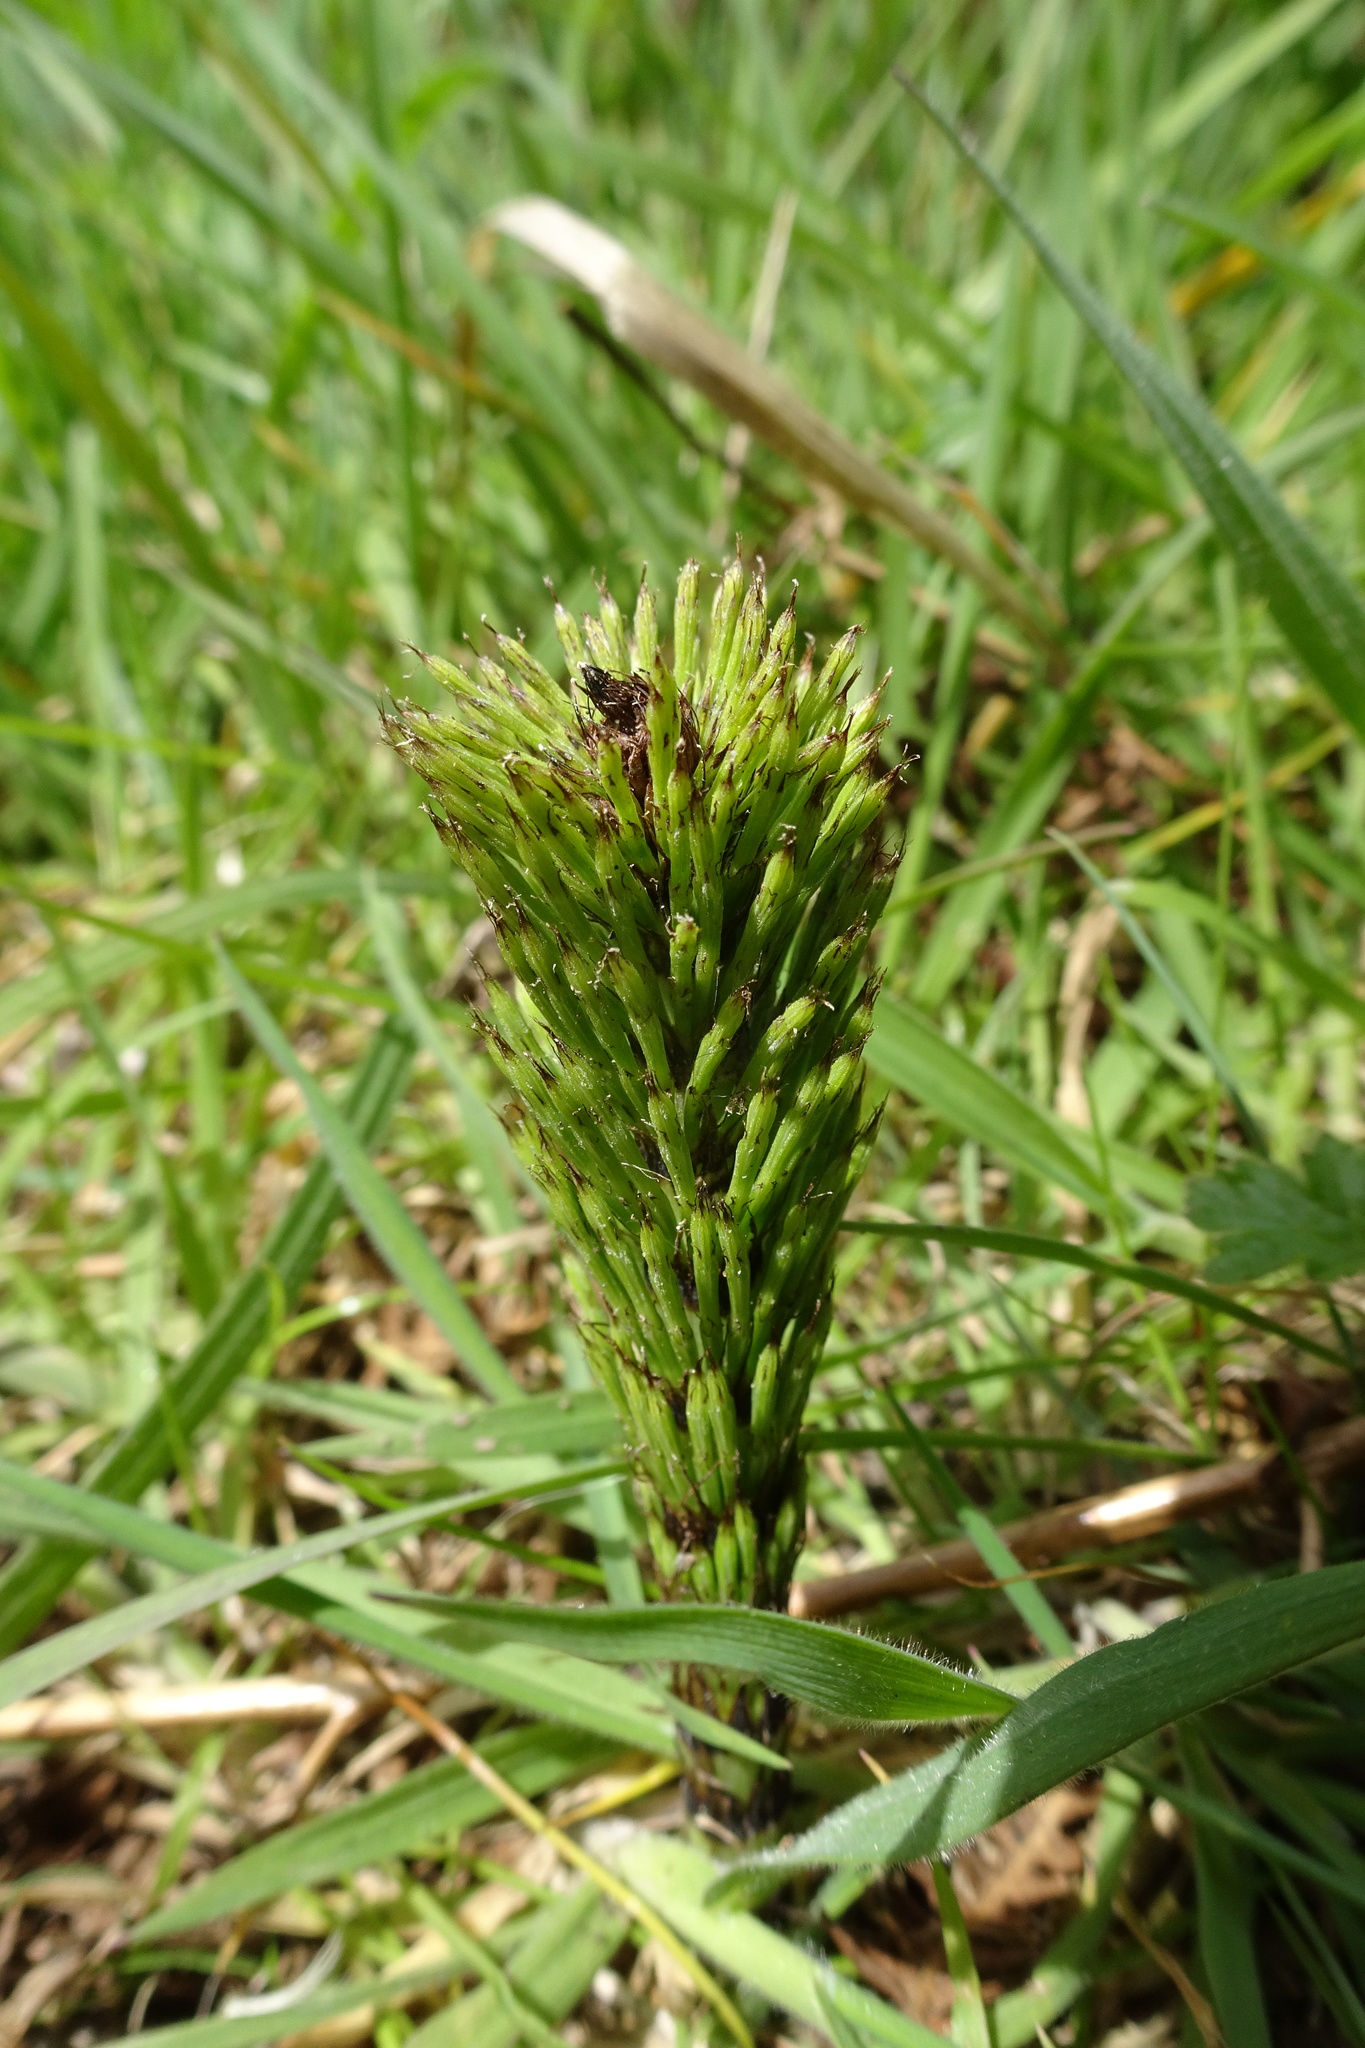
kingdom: Plantae
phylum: Tracheophyta
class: Polypodiopsida
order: Equisetales
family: Equisetaceae
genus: Equisetum
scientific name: Equisetum telmateia
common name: Great horsetail
